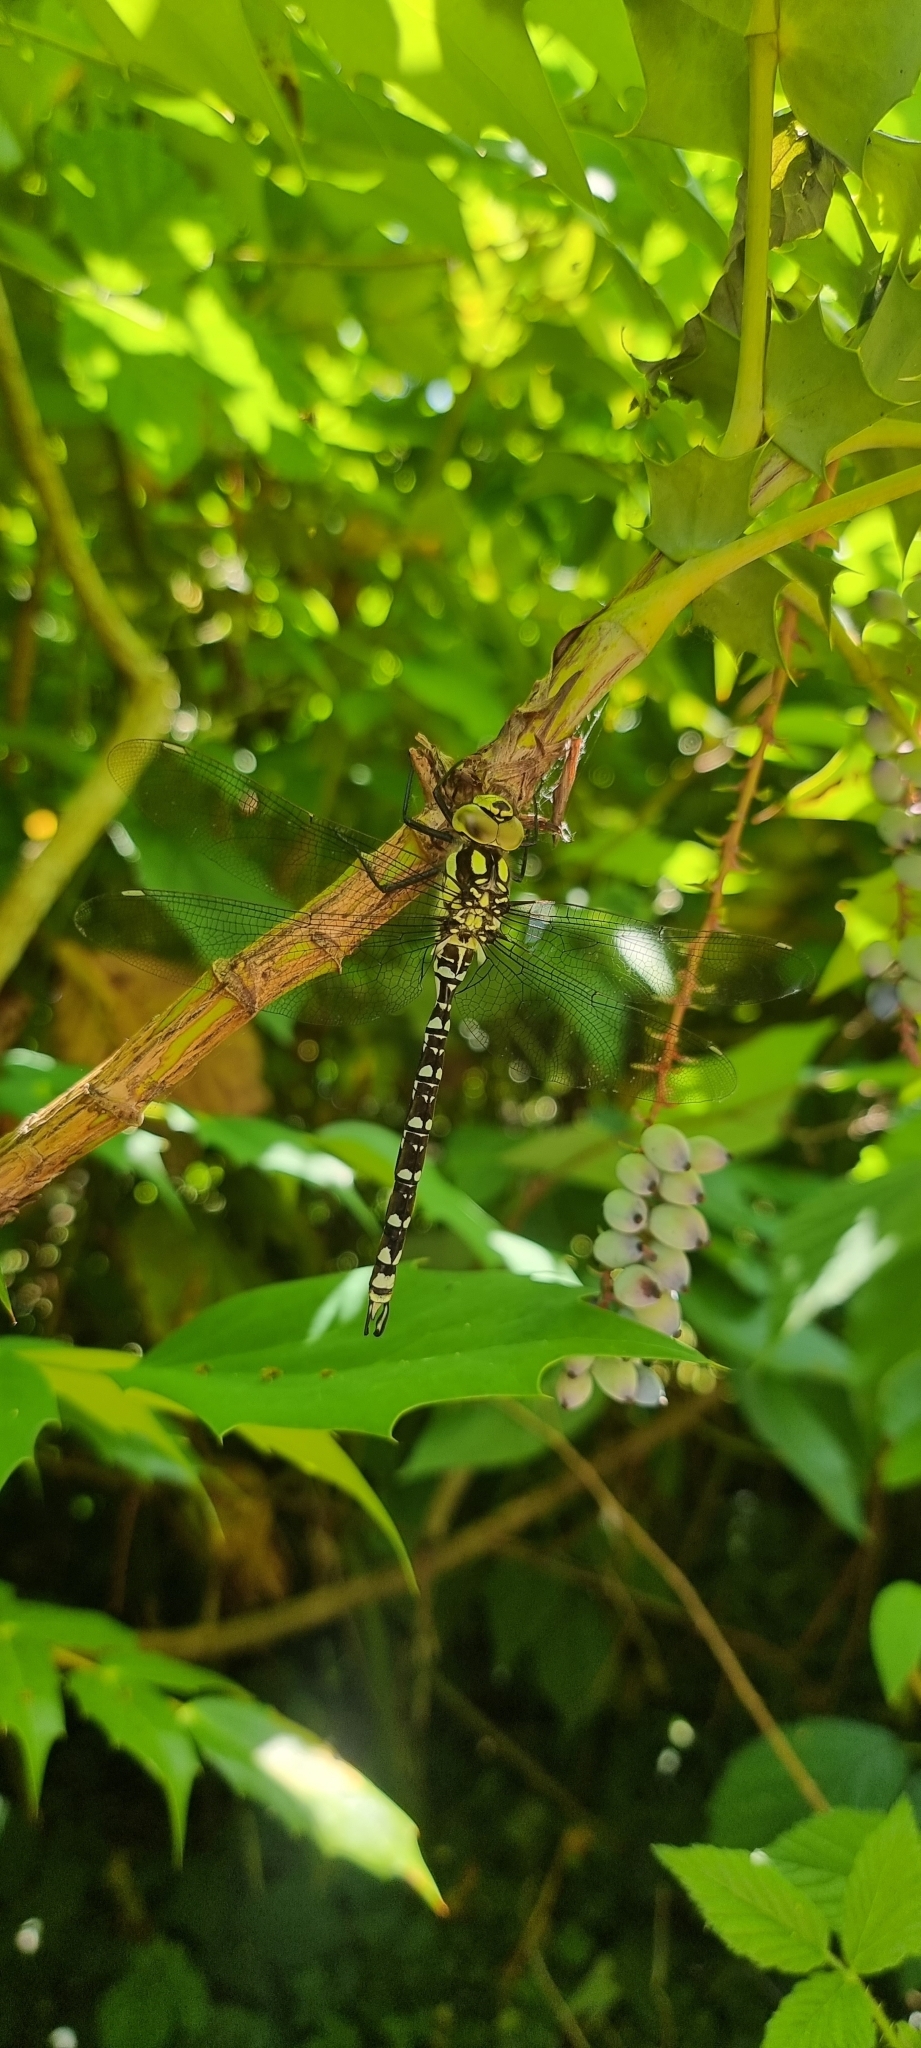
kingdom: Animalia
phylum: Arthropoda
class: Insecta
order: Odonata
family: Aeshnidae
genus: Aeshna
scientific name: Aeshna cyanea
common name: Southern hawker
